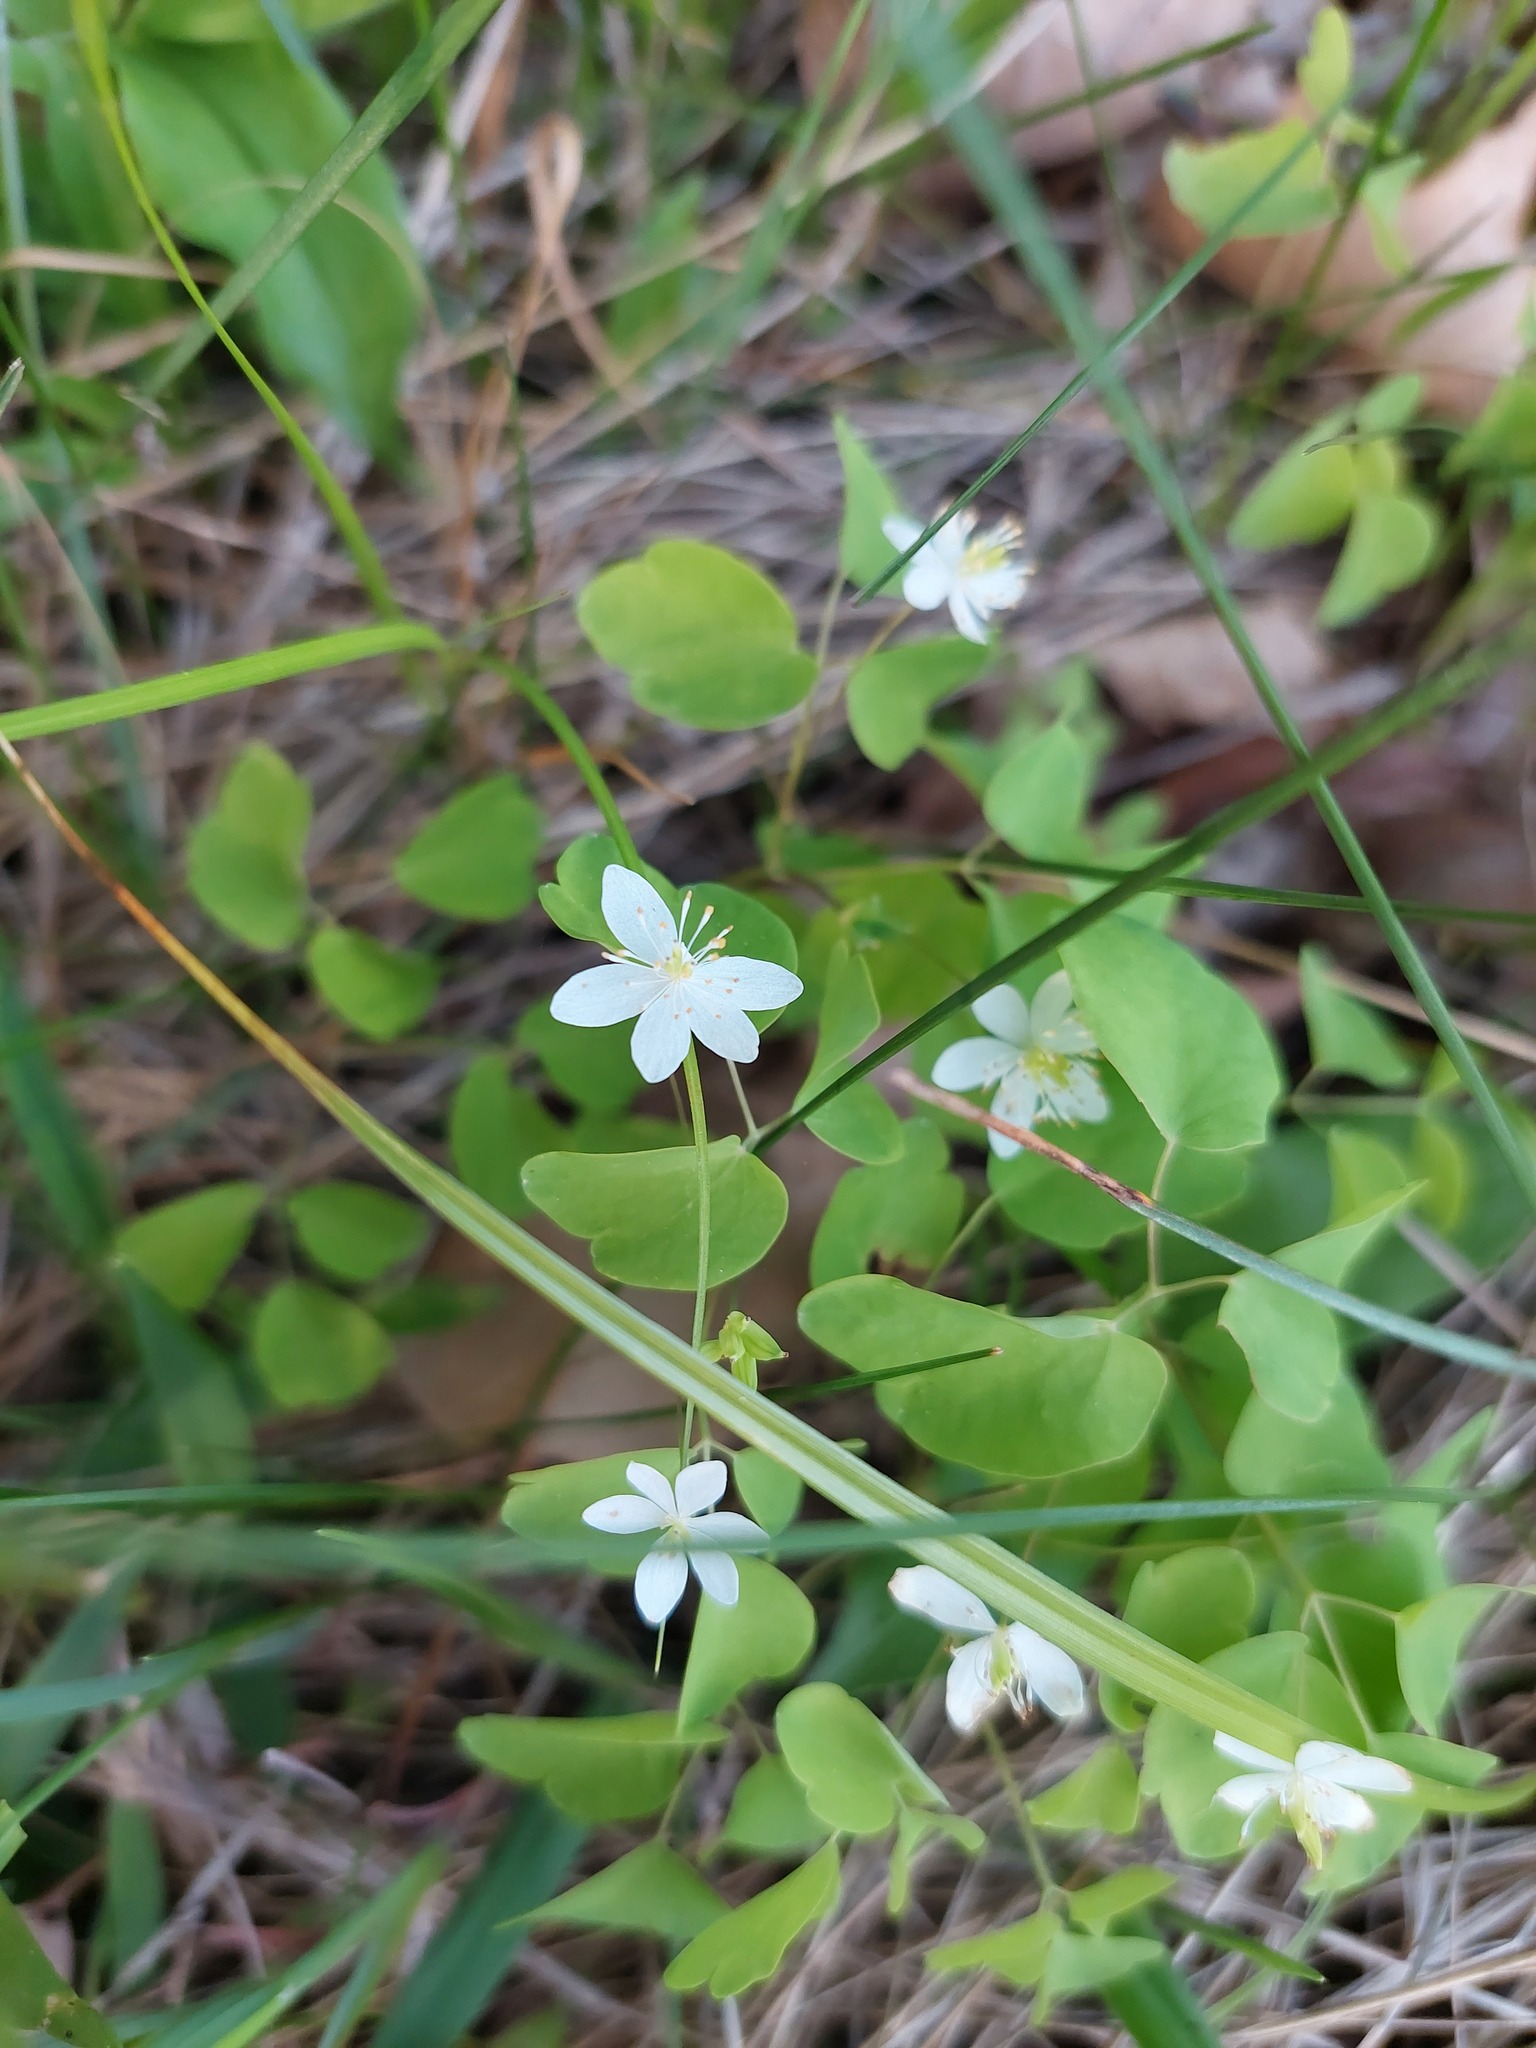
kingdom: Plantae
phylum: Tracheophyta
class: Magnoliopsida
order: Ranunculales
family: Ranunculaceae
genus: Thalictrum
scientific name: Thalictrum thalictroides
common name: Rue-anemone
